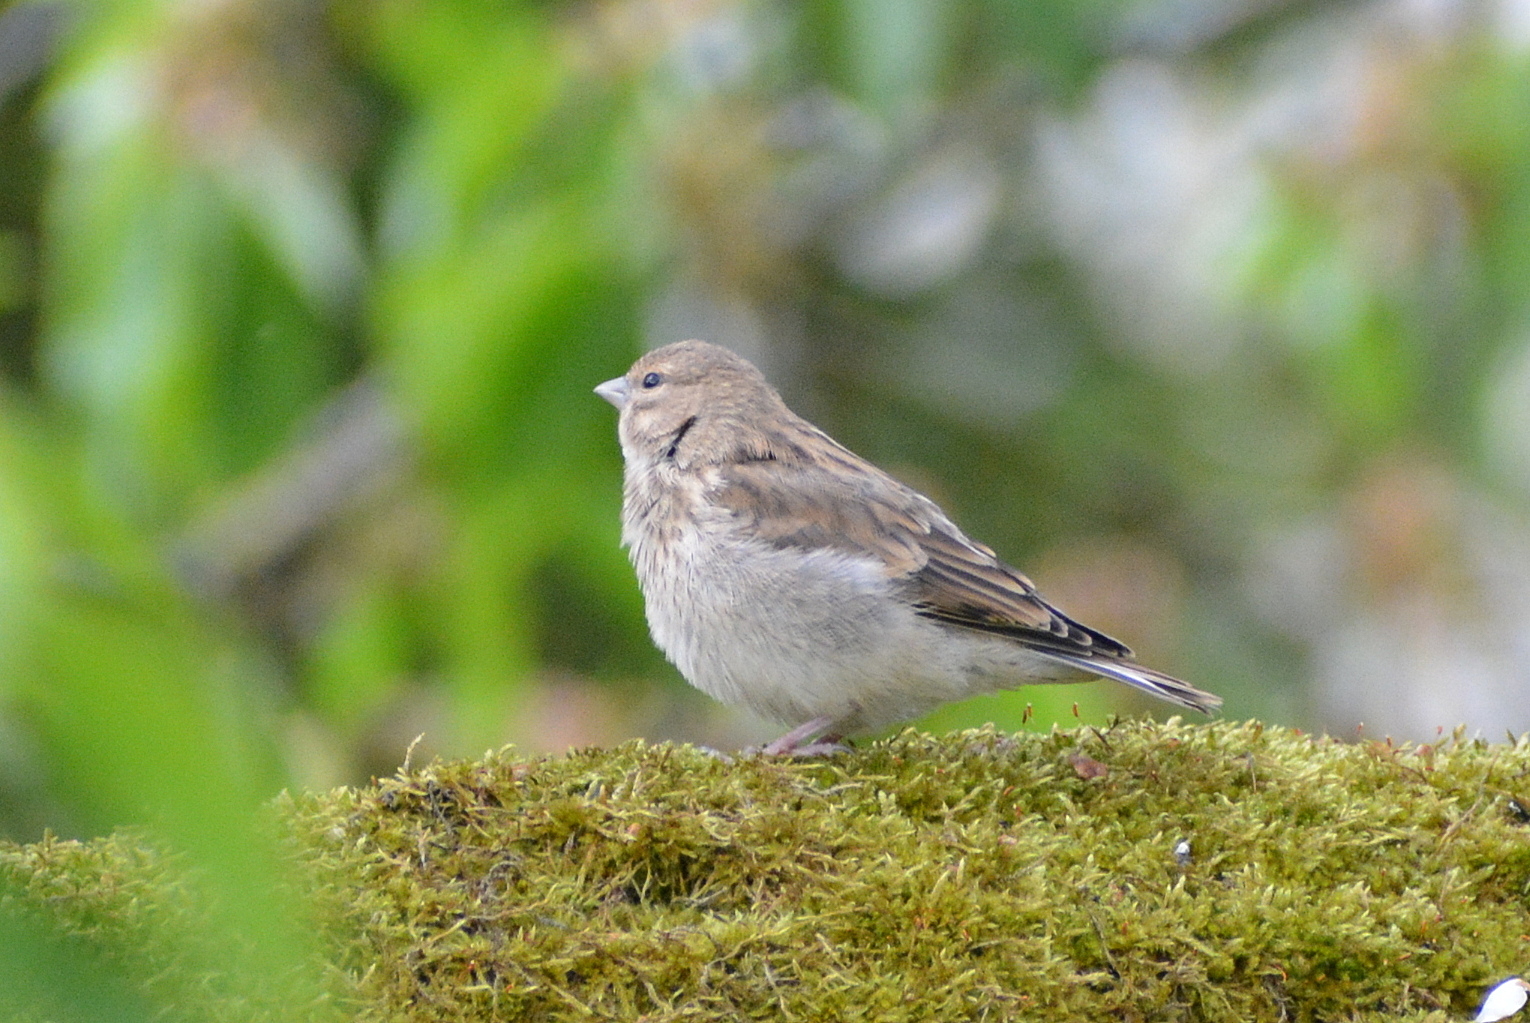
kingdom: Animalia
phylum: Chordata
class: Aves
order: Passeriformes
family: Fringillidae
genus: Linaria
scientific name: Linaria cannabina
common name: Common linnet
